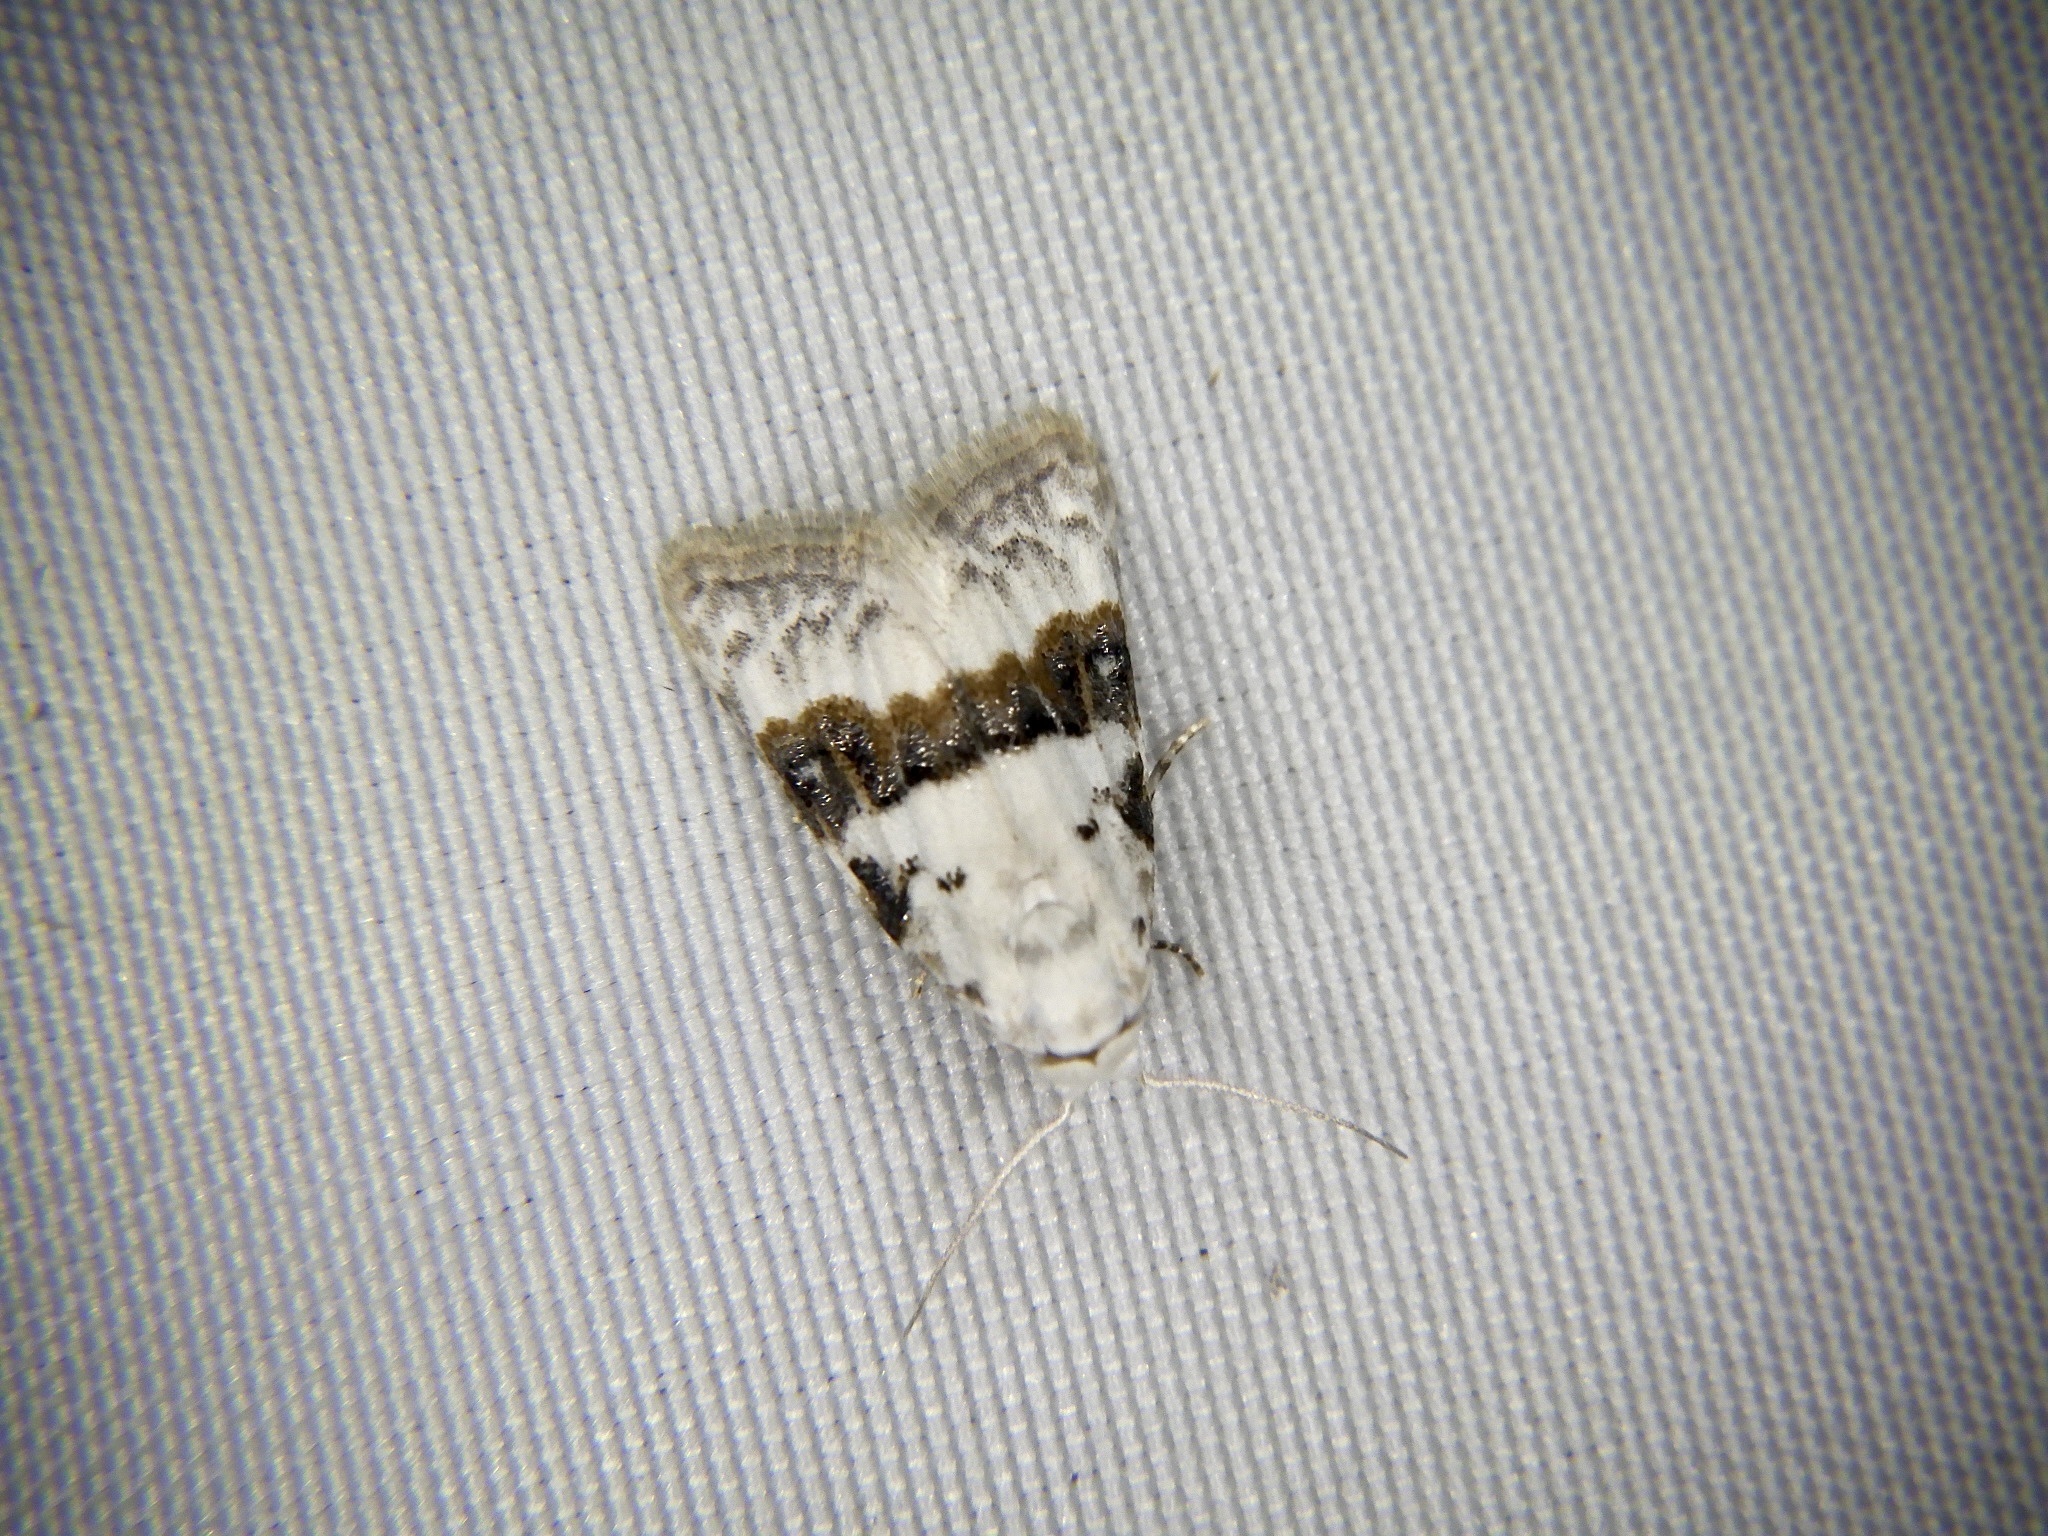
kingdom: Animalia
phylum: Arthropoda
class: Insecta
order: Lepidoptera
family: Nolidae
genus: Nola
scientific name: Nola taeniata
